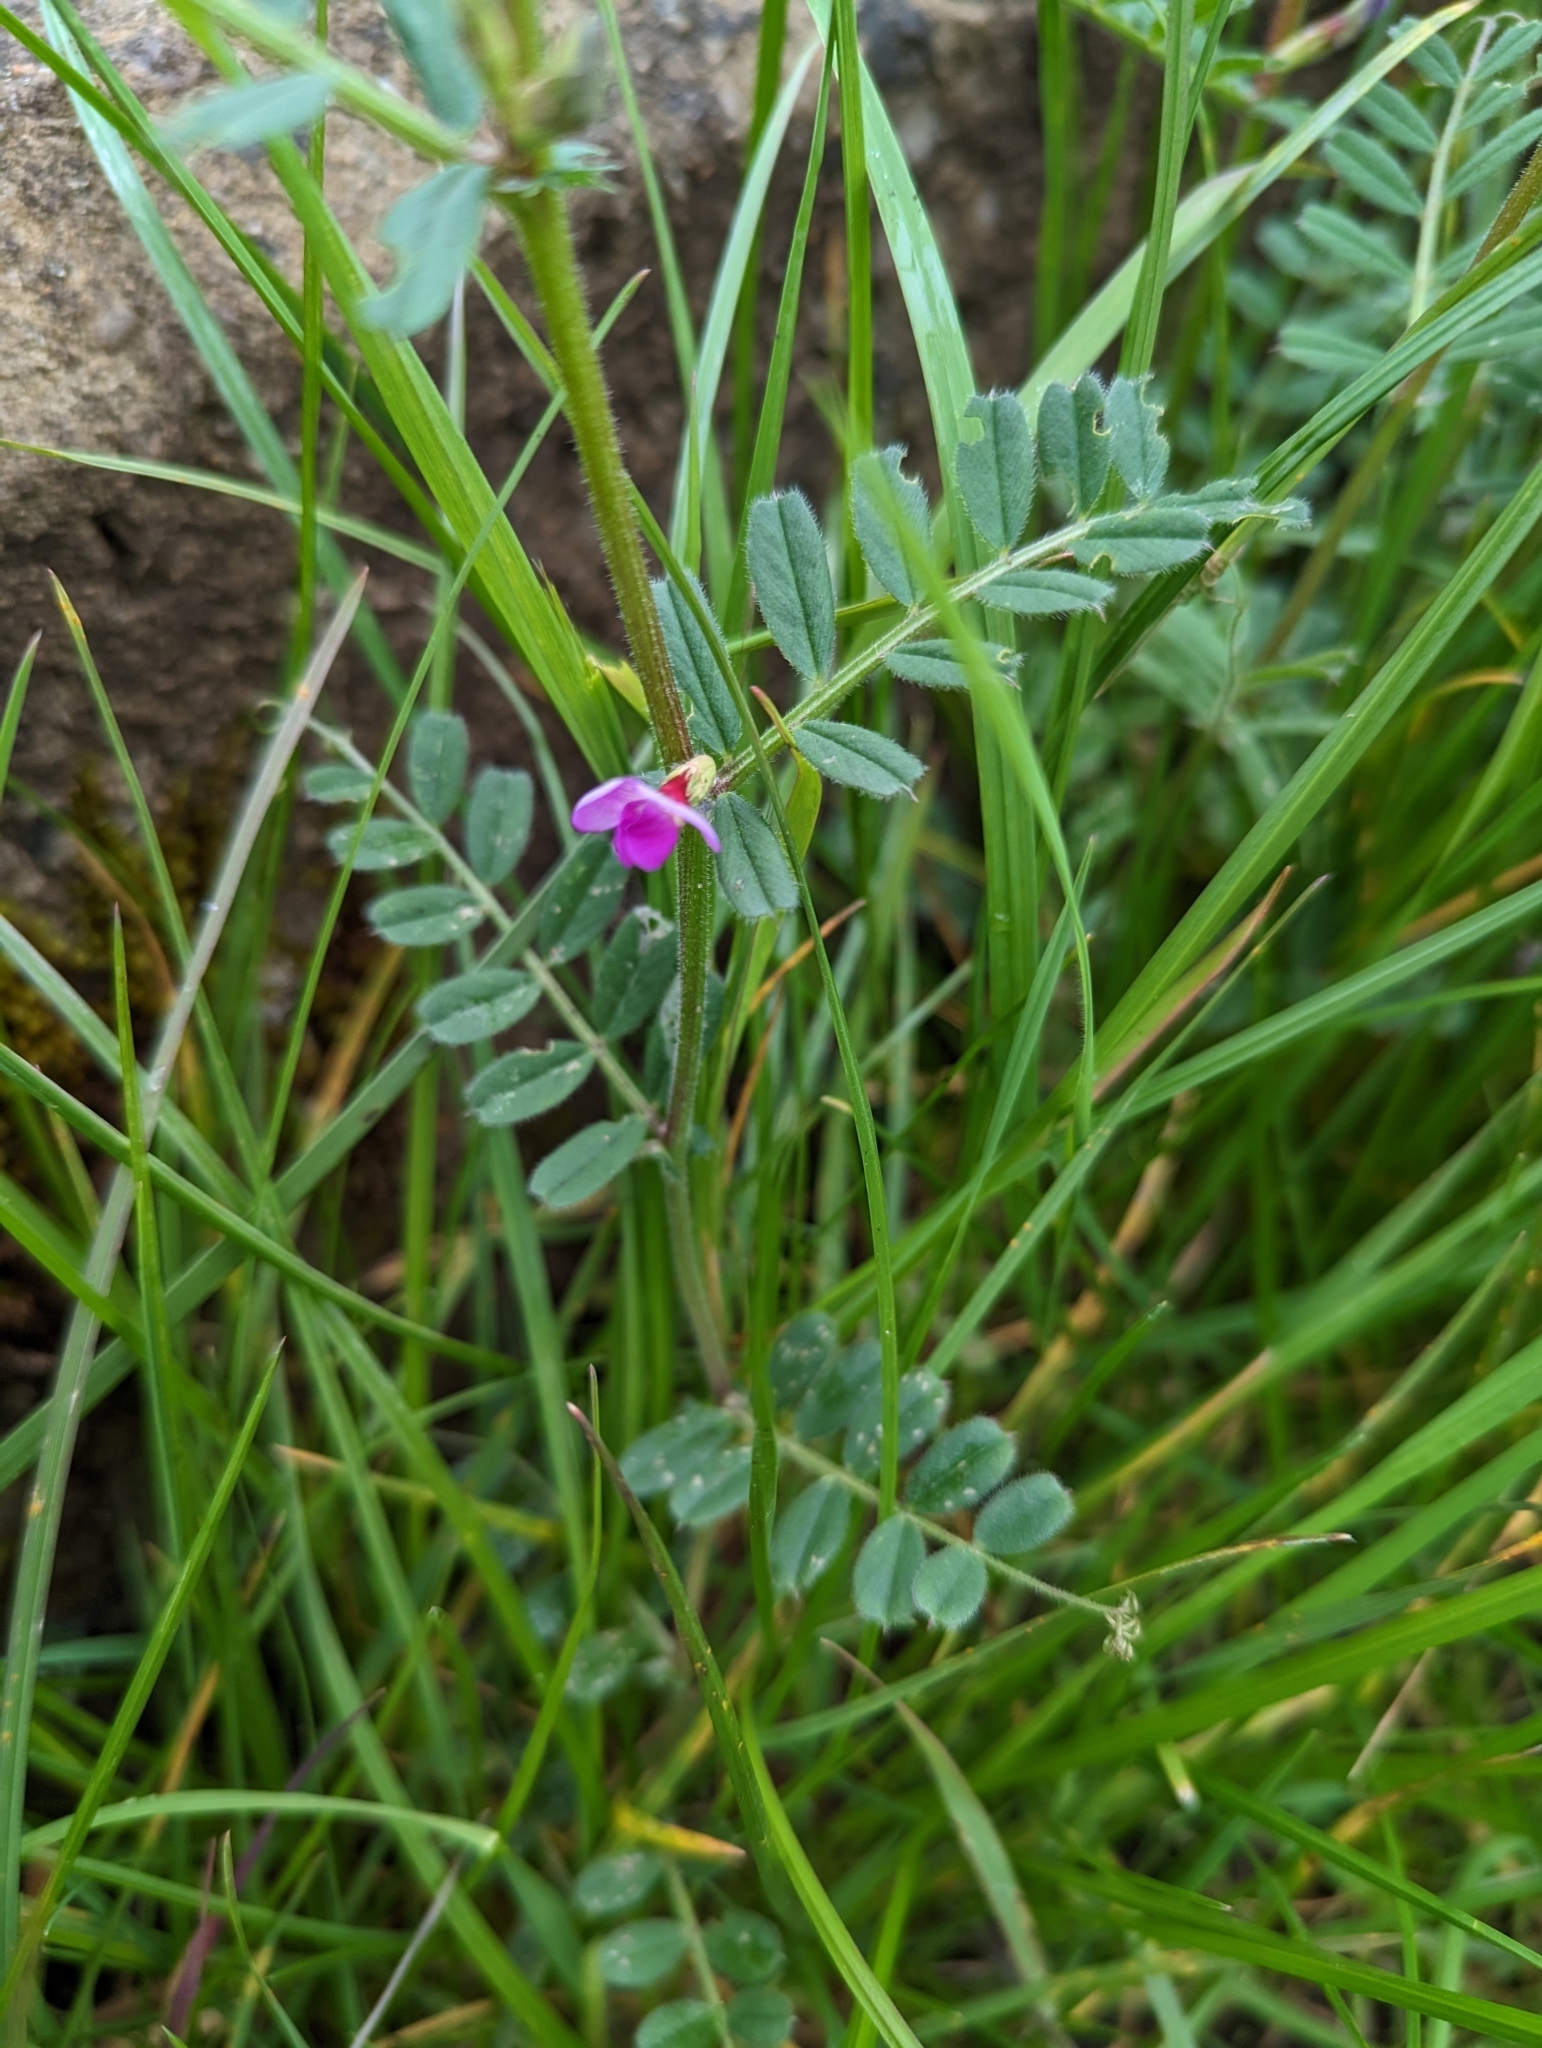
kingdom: Plantae
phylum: Tracheophyta
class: Magnoliopsida
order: Fabales
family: Fabaceae
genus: Vicia
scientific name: Vicia sativa
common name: Garden vetch
